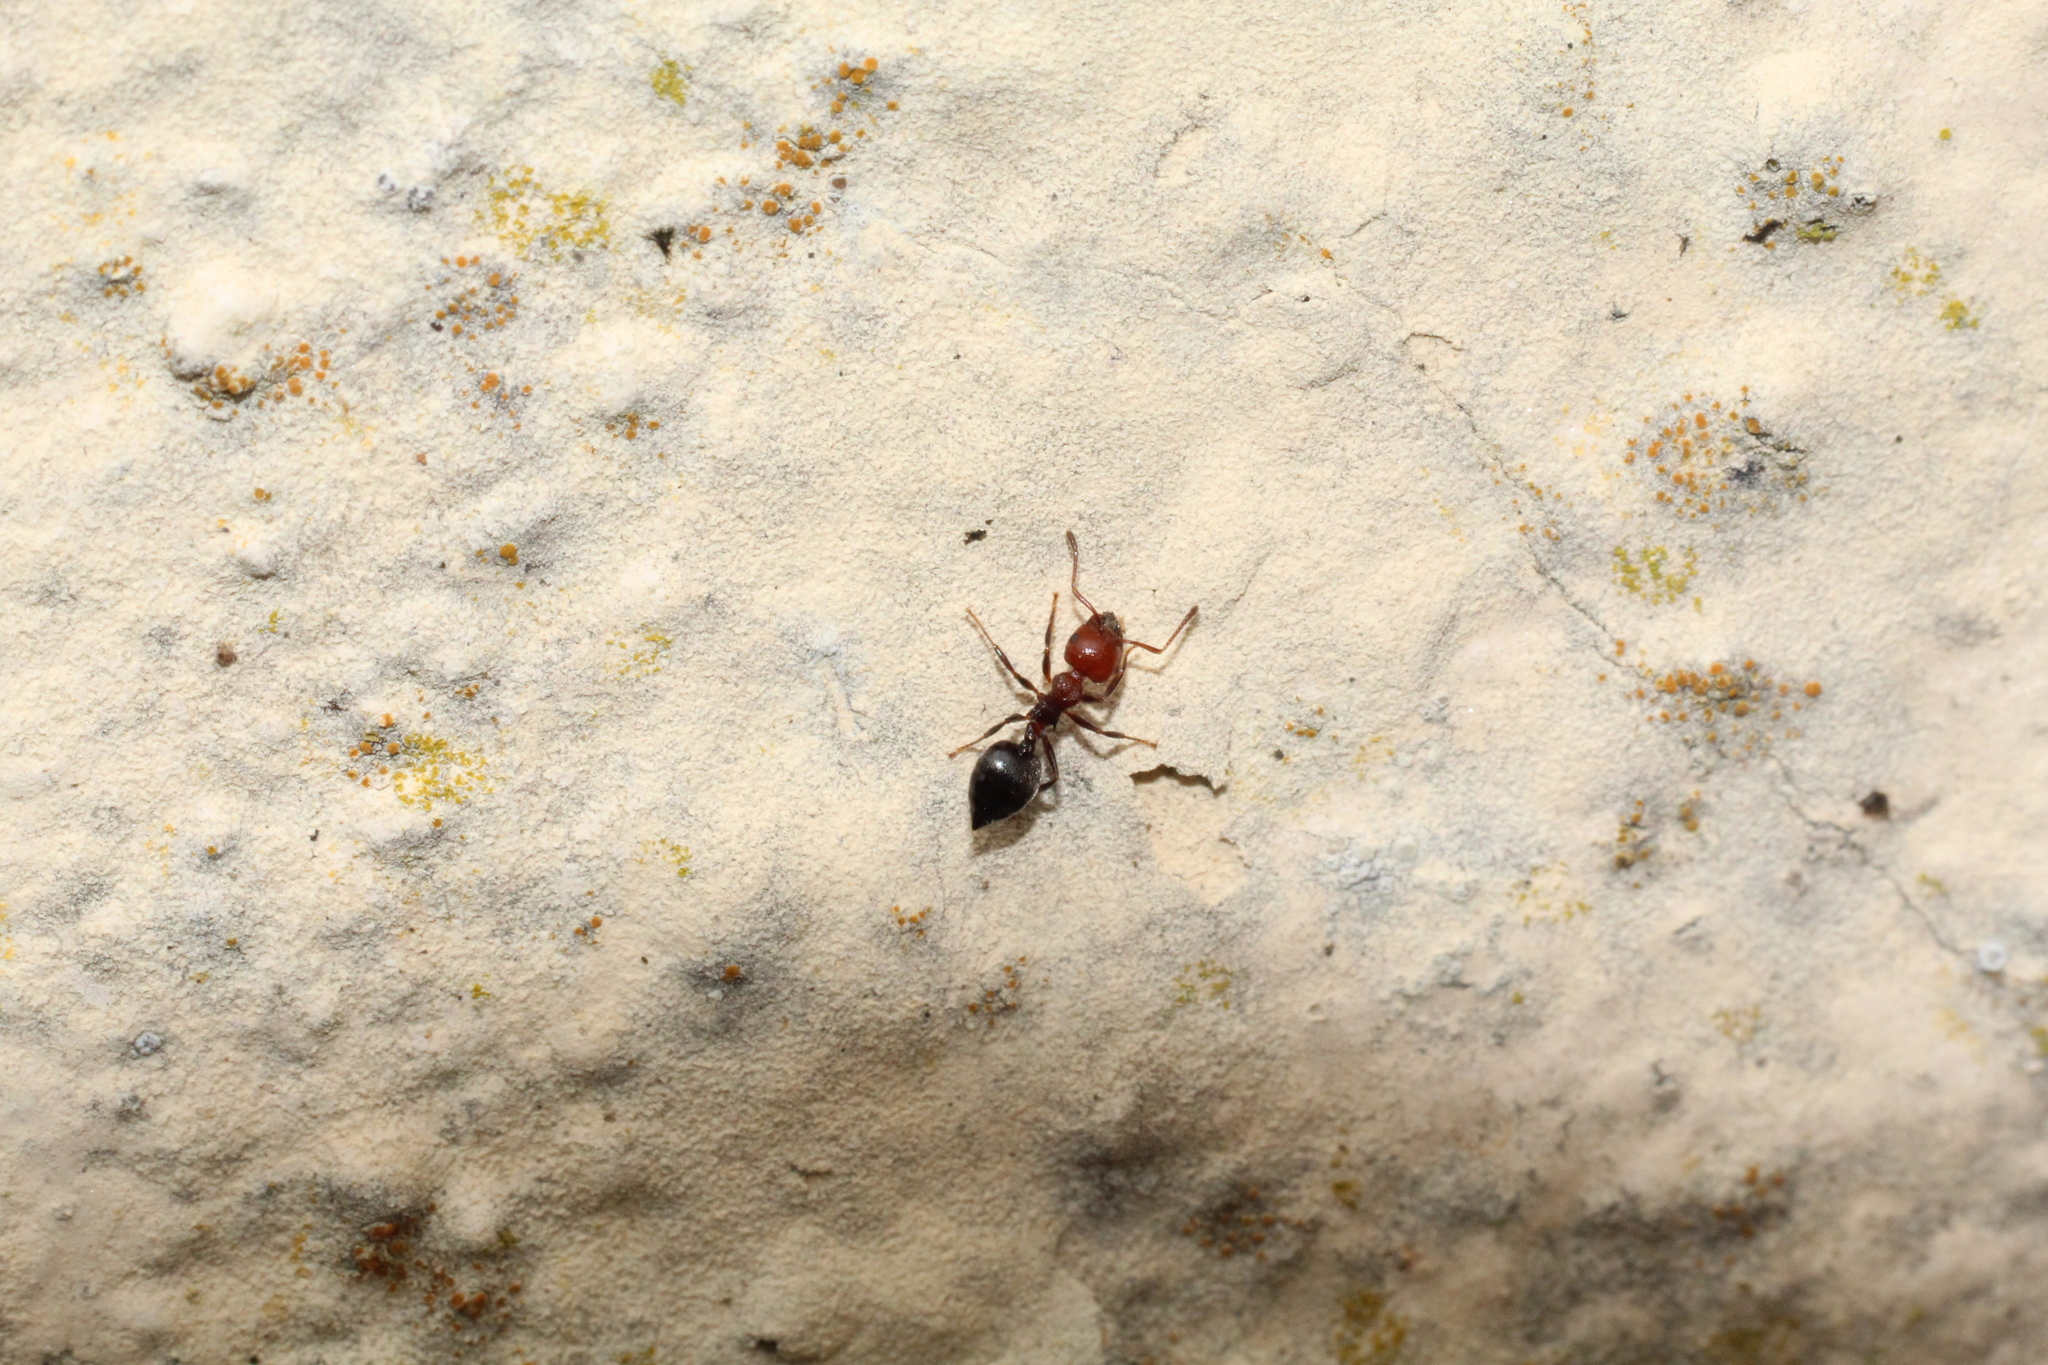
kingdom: Animalia
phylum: Arthropoda
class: Insecta
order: Hymenoptera
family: Formicidae
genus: Crematogaster
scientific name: Crematogaster scutellaris
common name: Fourmi du liège
